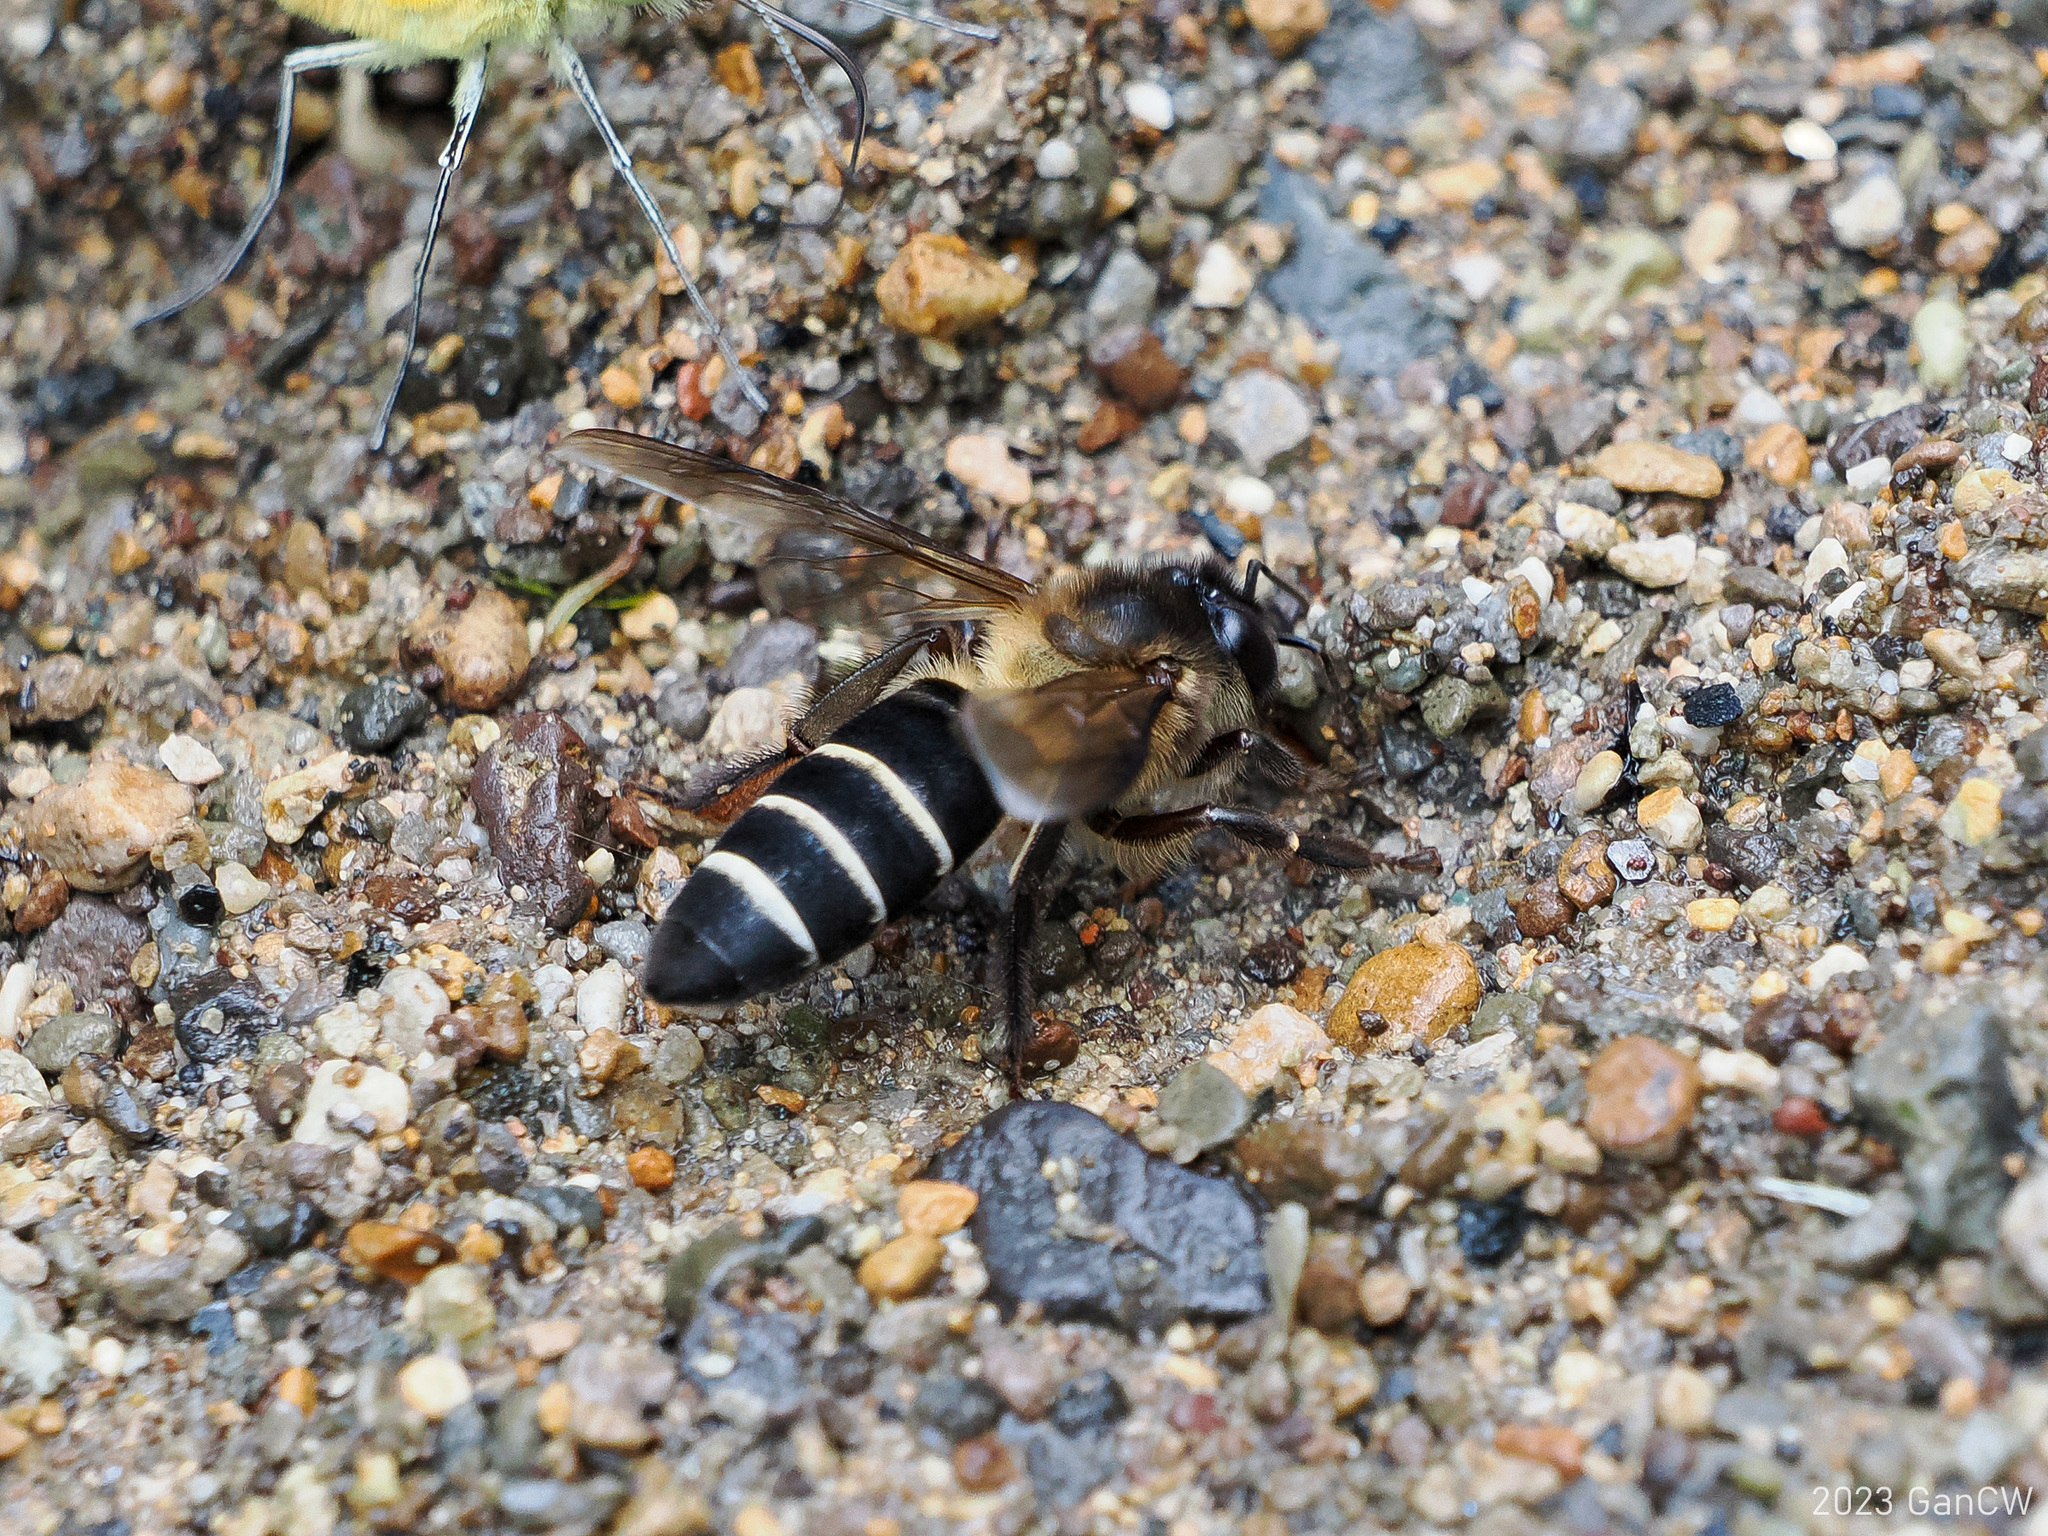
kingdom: Animalia
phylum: Arthropoda
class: Insecta
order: Hymenoptera
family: Apidae
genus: Apis
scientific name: Apis dorsata
